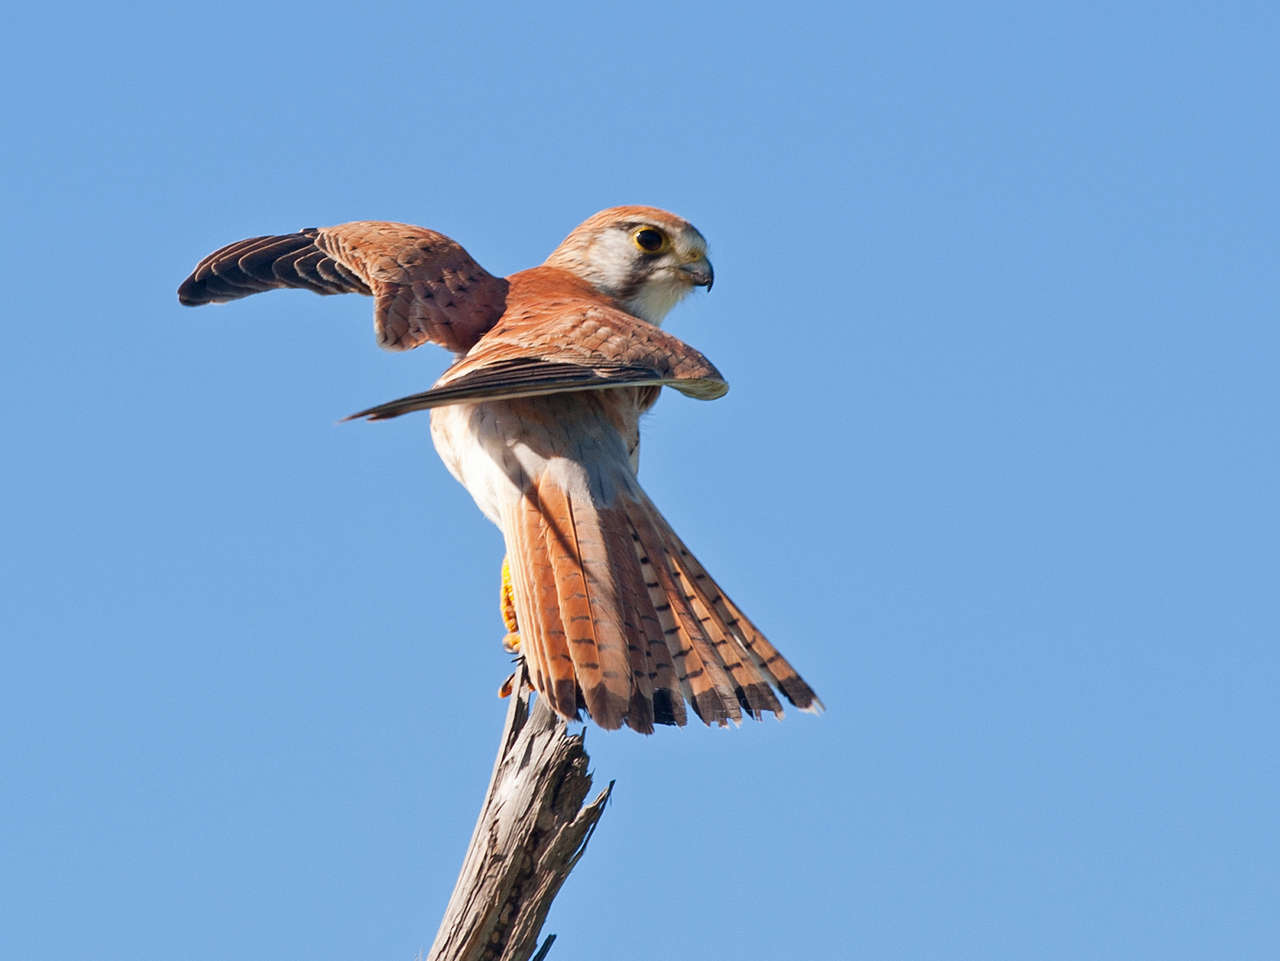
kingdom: Animalia
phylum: Chordata
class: Aves
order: Falconiformes
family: Falconidae
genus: Falco
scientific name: Falco cenchroides
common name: Nankeen kestrel
